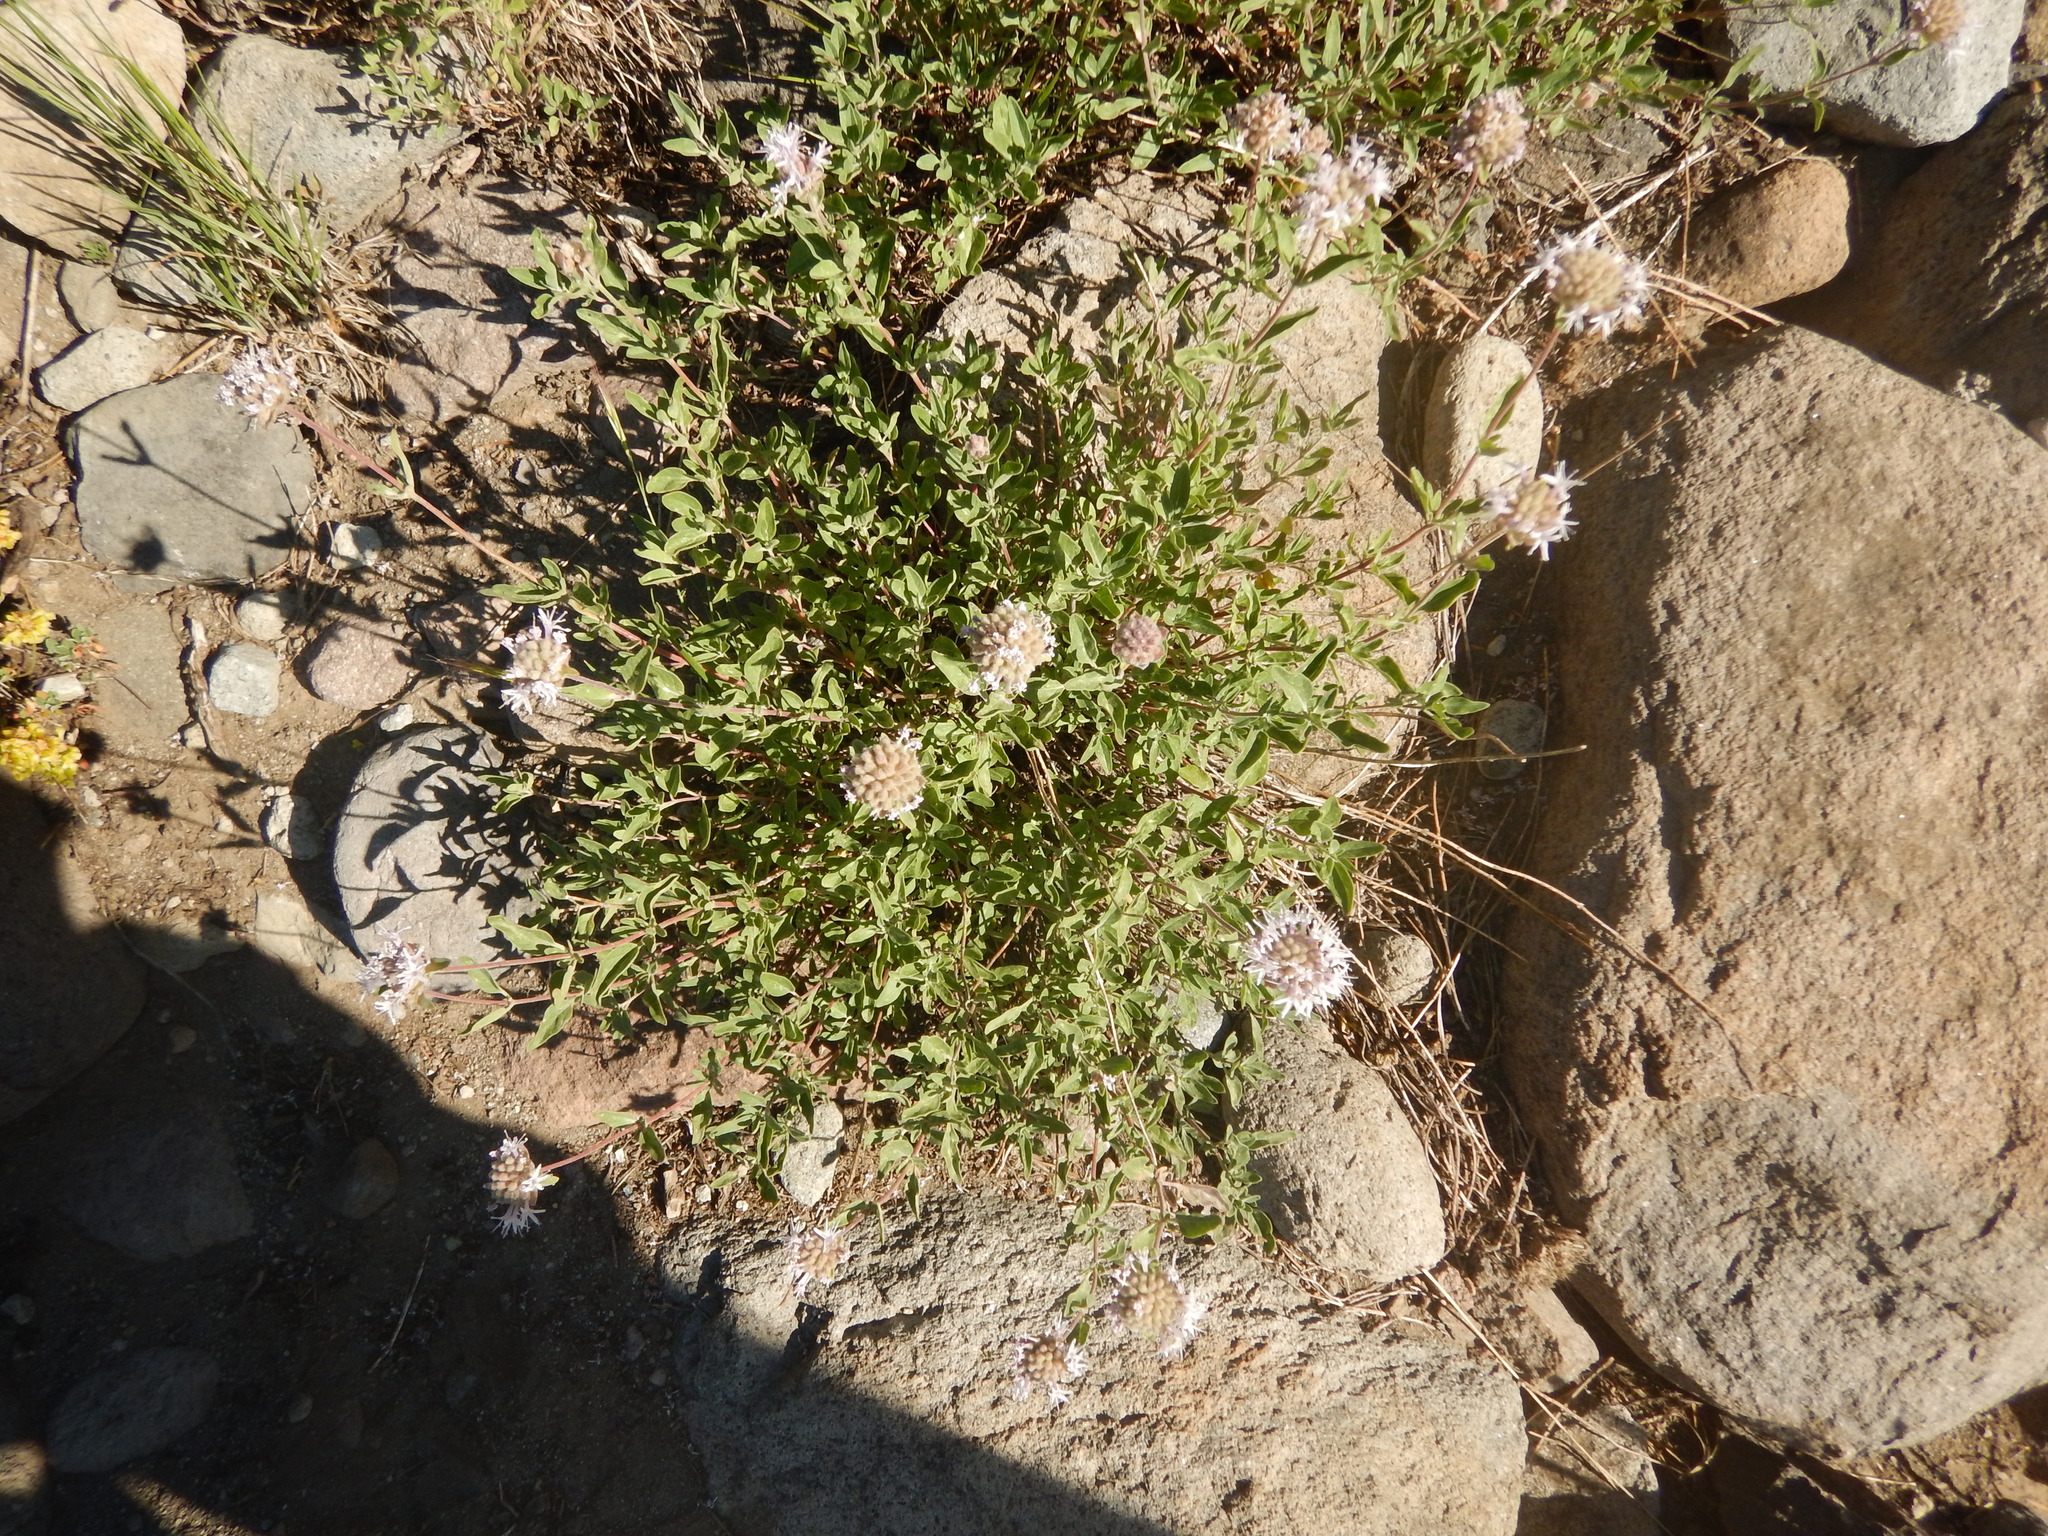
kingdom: Plantae
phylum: Tracheophyta
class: Magnoliopsida
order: Lamiales
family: Lamiaceae
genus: Monardella
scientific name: Monardella odoratissima
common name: Pacific monardella
